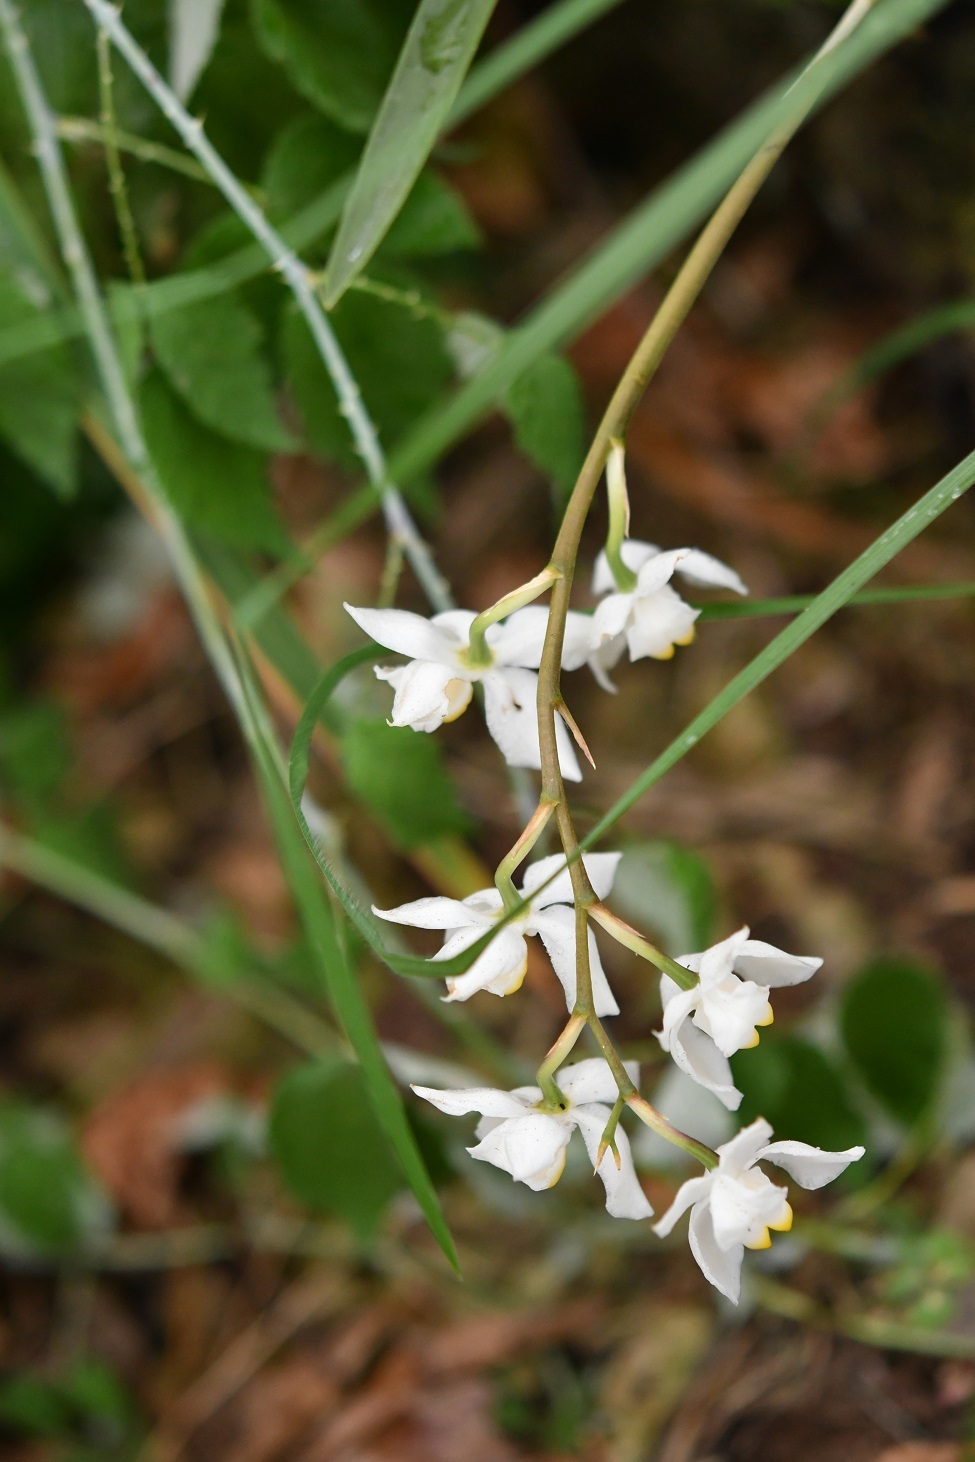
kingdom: Plantae
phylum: Tracheophyta
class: Liliopsida
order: Asparagales
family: Orchidaceae
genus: Cuitlauzina
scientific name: Cuitlauzina pulchella
